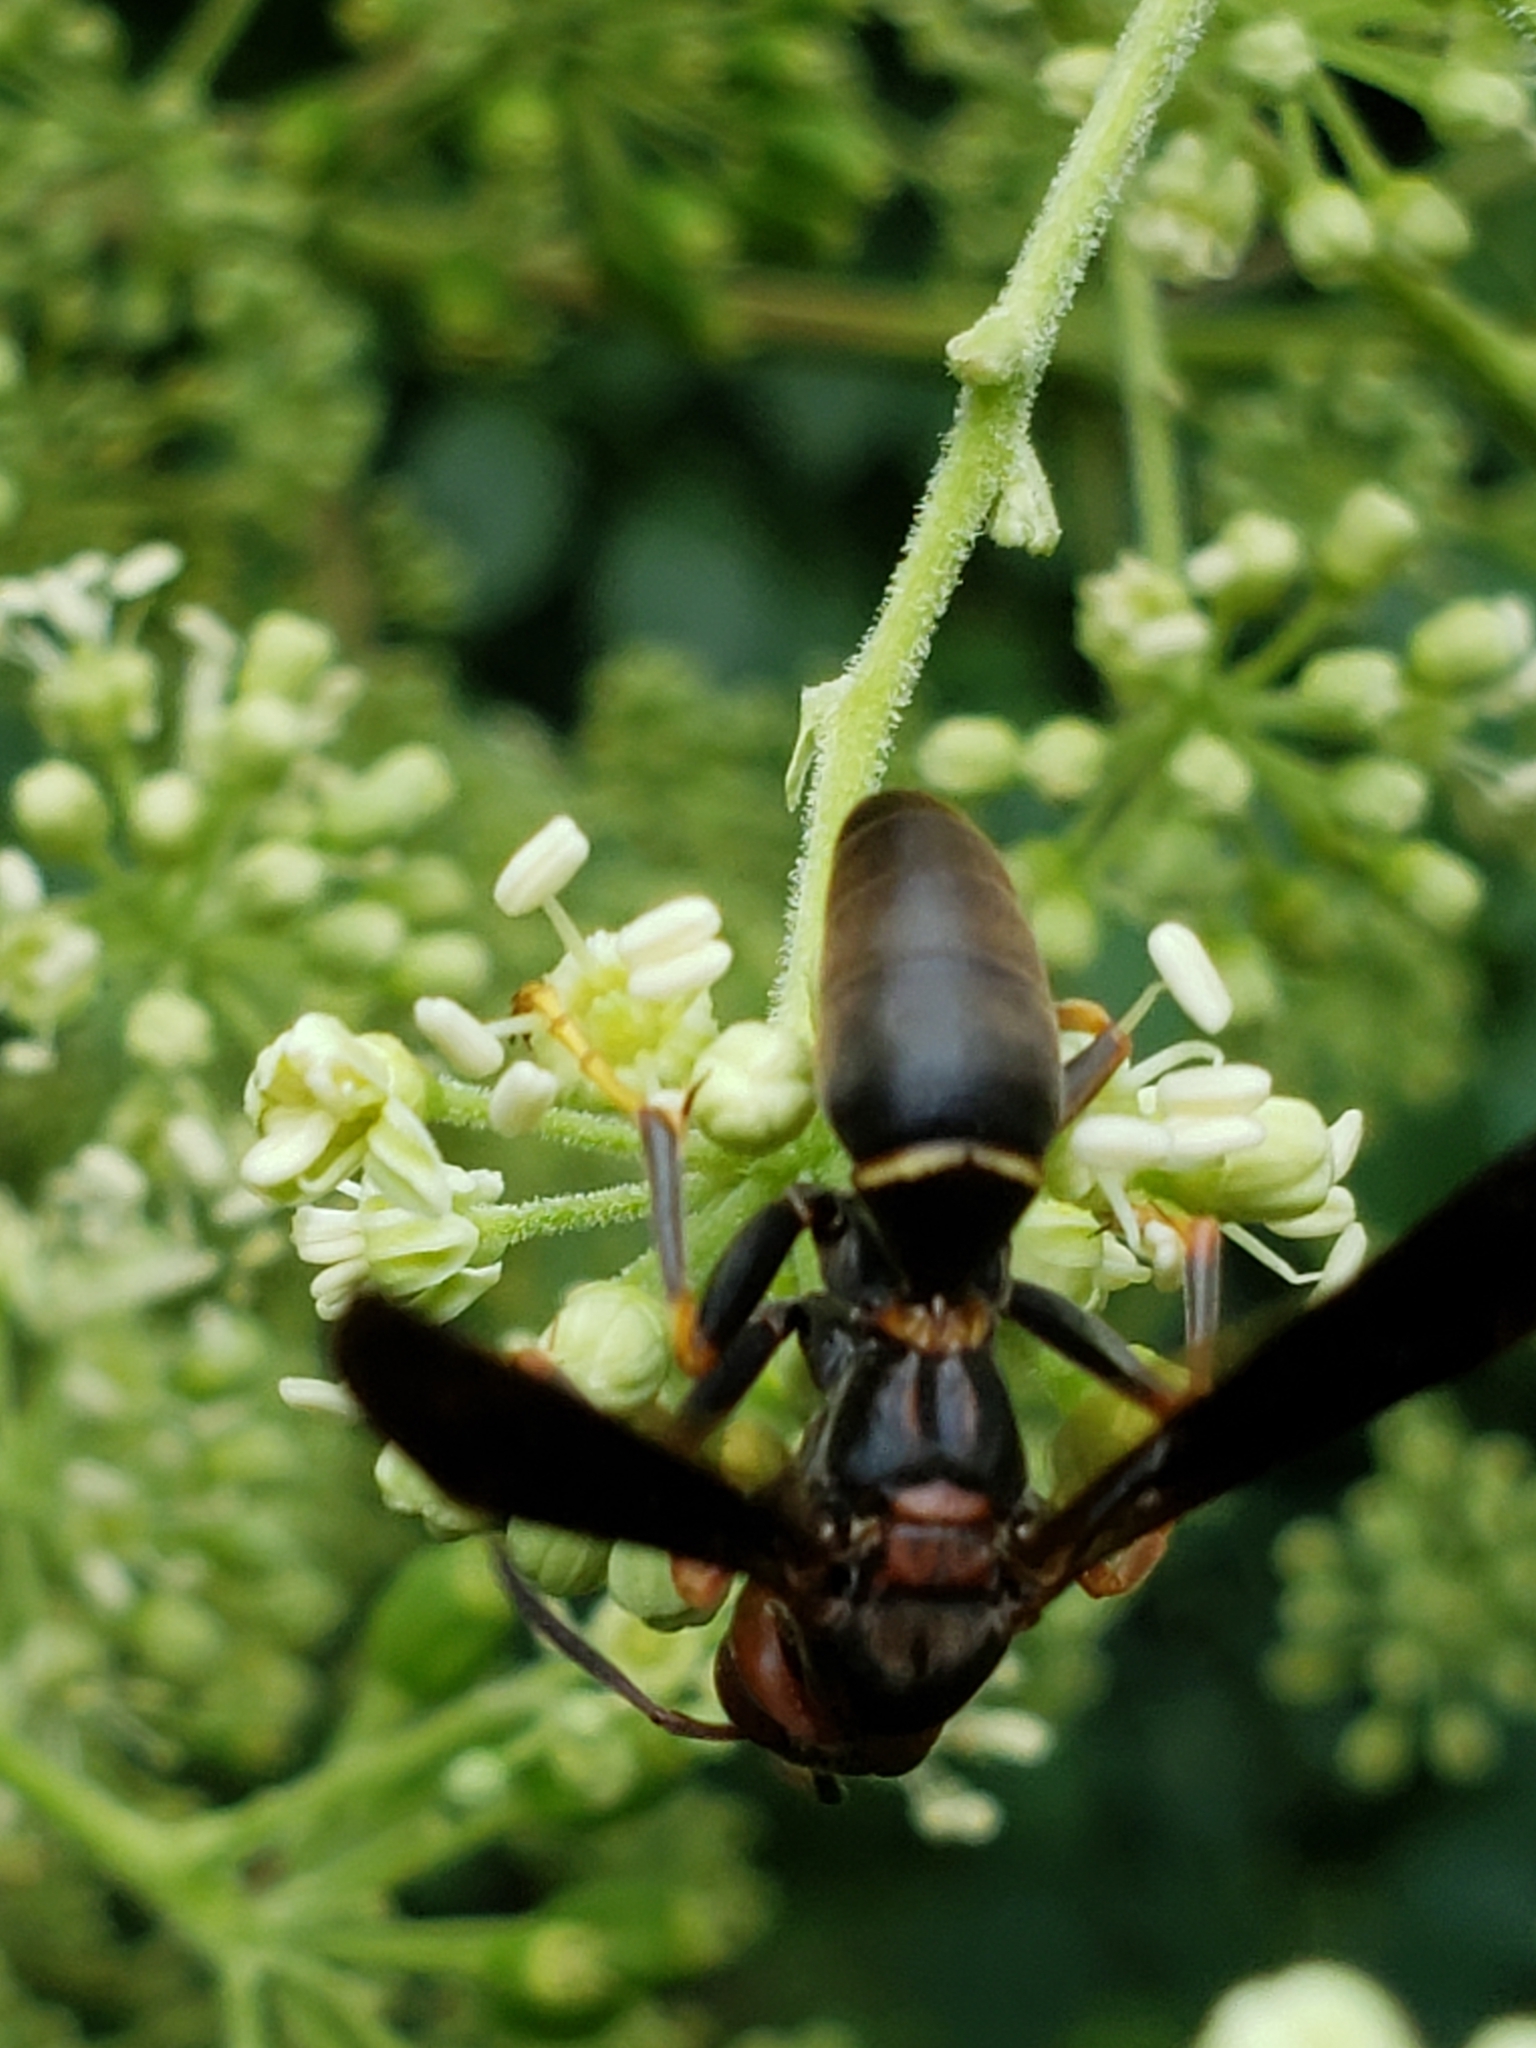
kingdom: Animalia
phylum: Arthropoda
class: Insecta
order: Hymenoptera
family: Eumenidae
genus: Polistes
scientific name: Polistes parametricus
